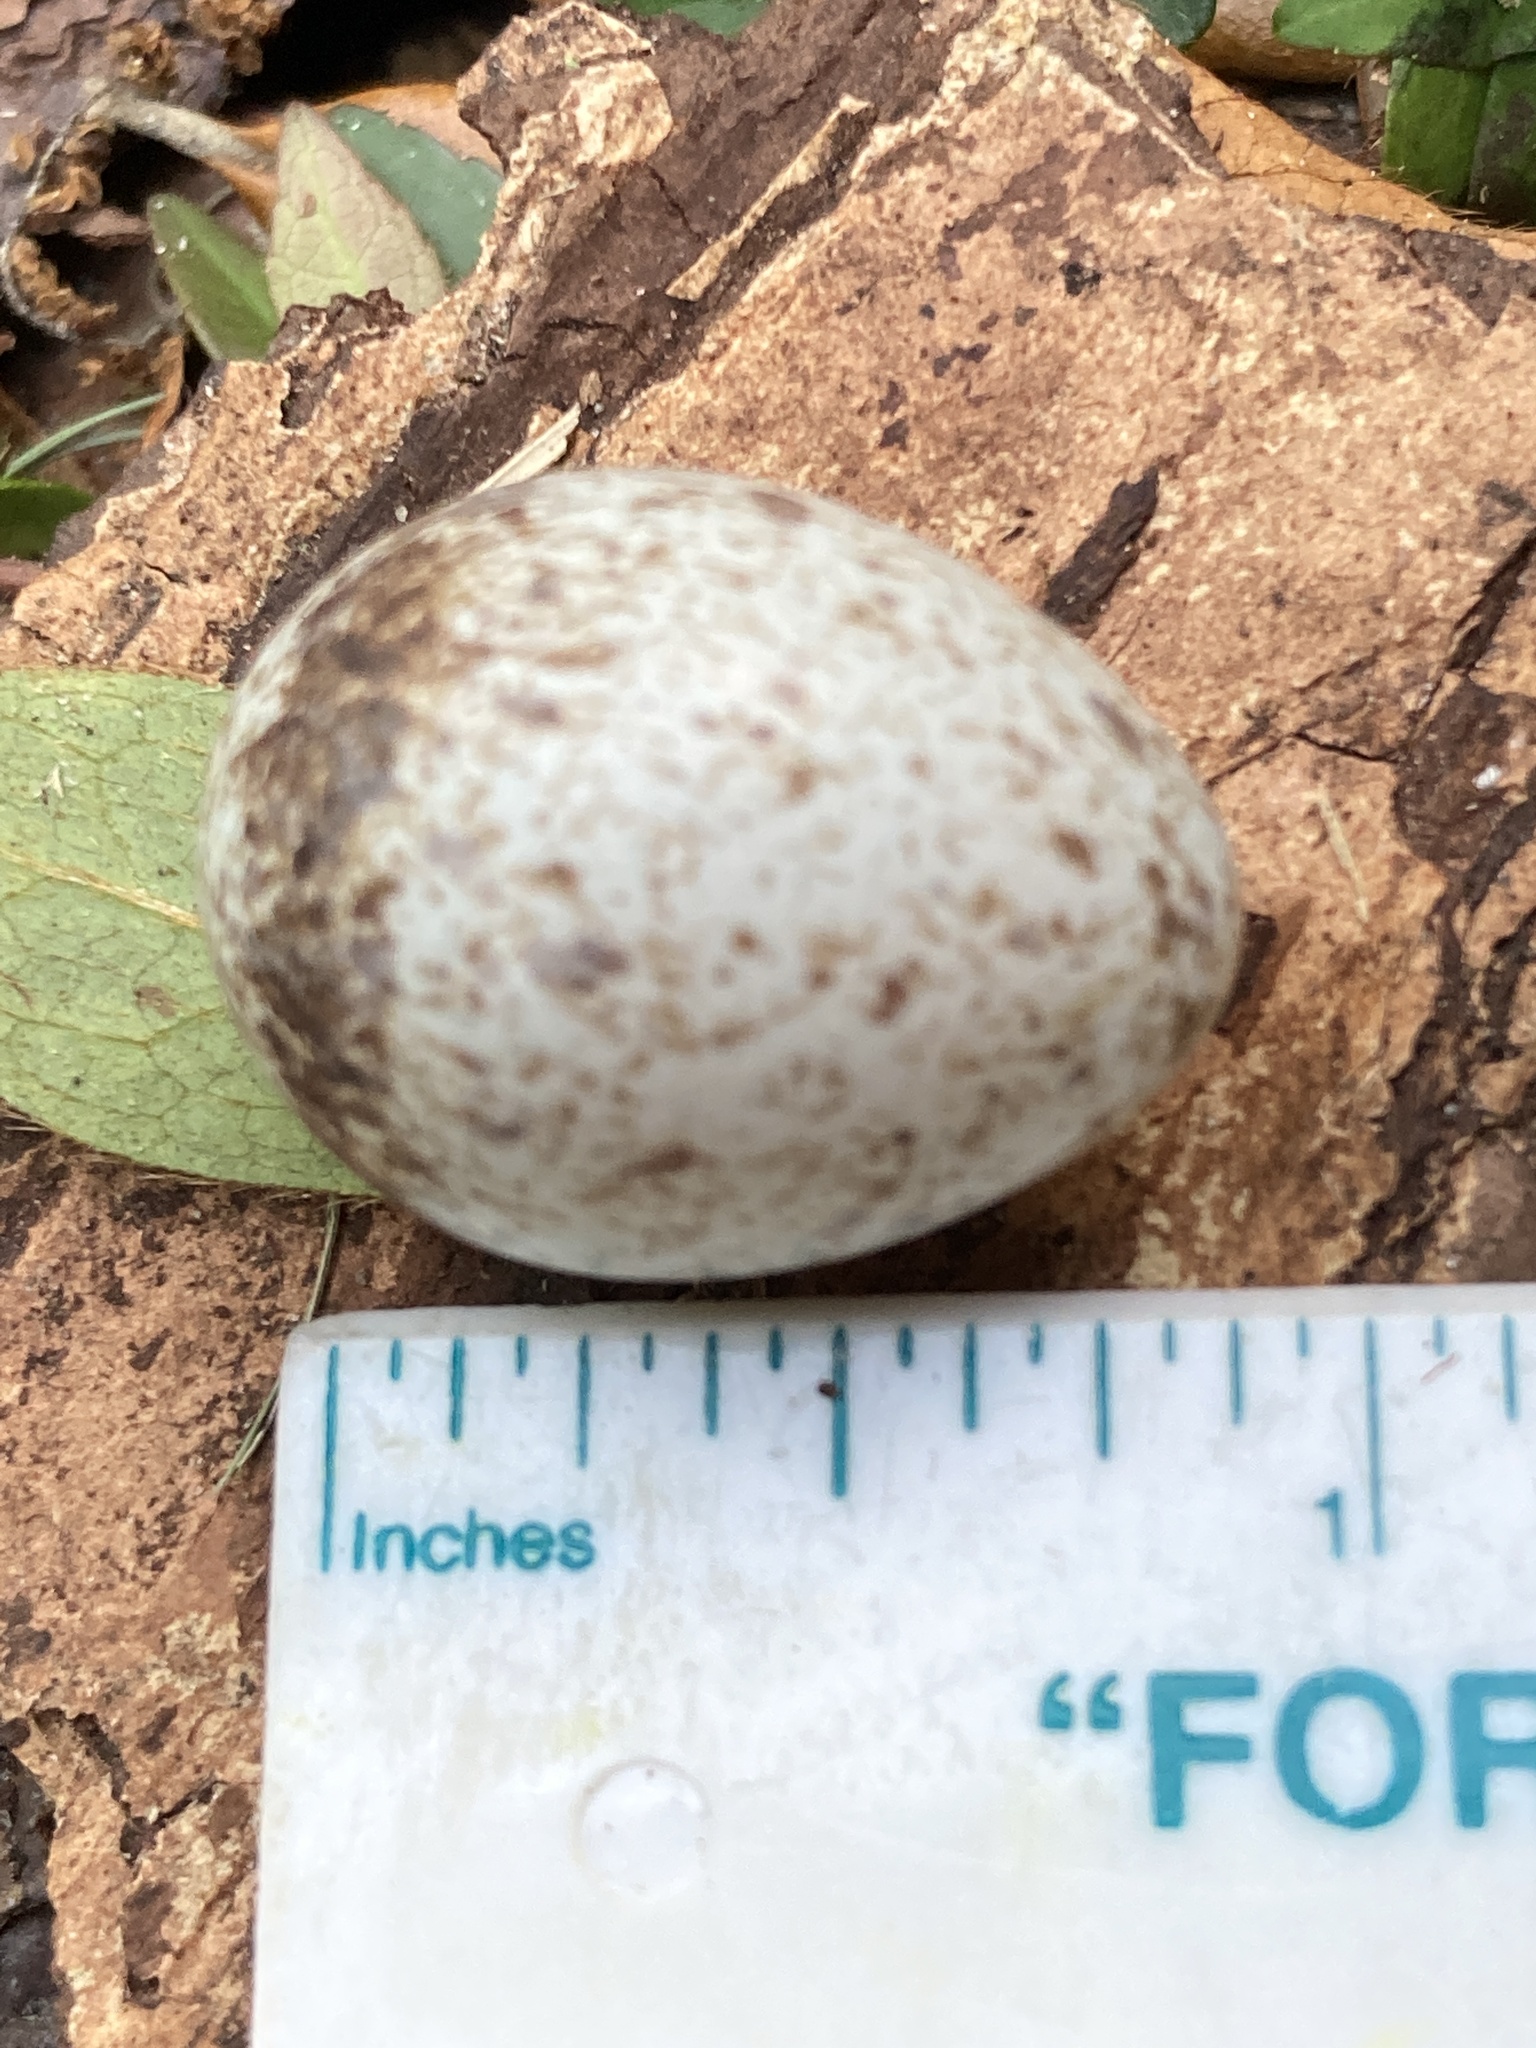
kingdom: Animalia
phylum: Chordata
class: Aves
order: Passeriformes
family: Cardinalidae
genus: Cardinalis
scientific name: Cardinalis cardinalis
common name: Northern cardinal
